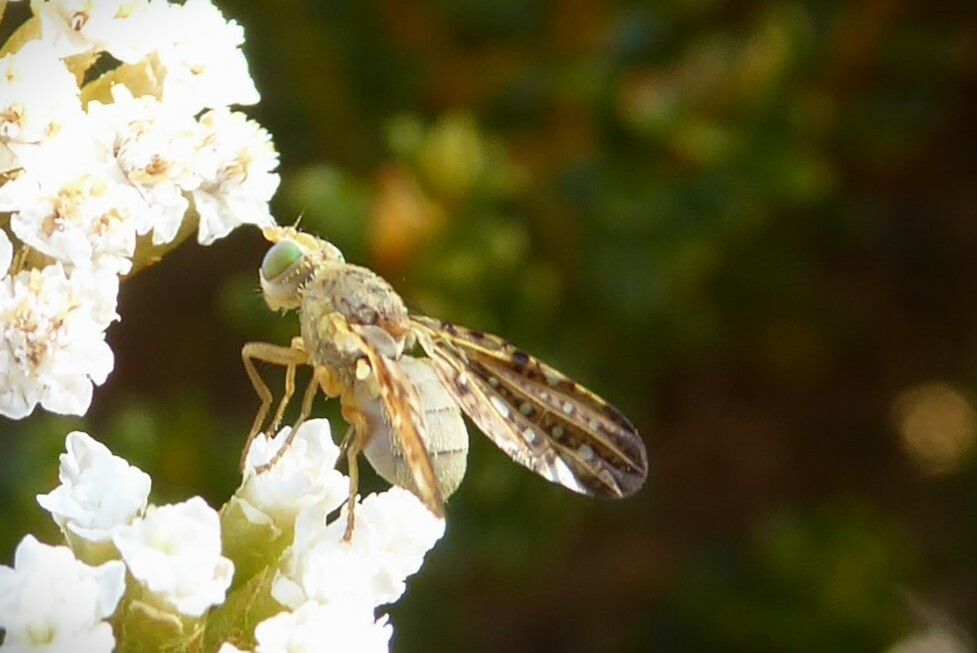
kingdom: Animalia
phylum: Arthropoda
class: Insecta
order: Diptera
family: Tephritidae
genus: Austrotephritis
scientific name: Austrotephritis
